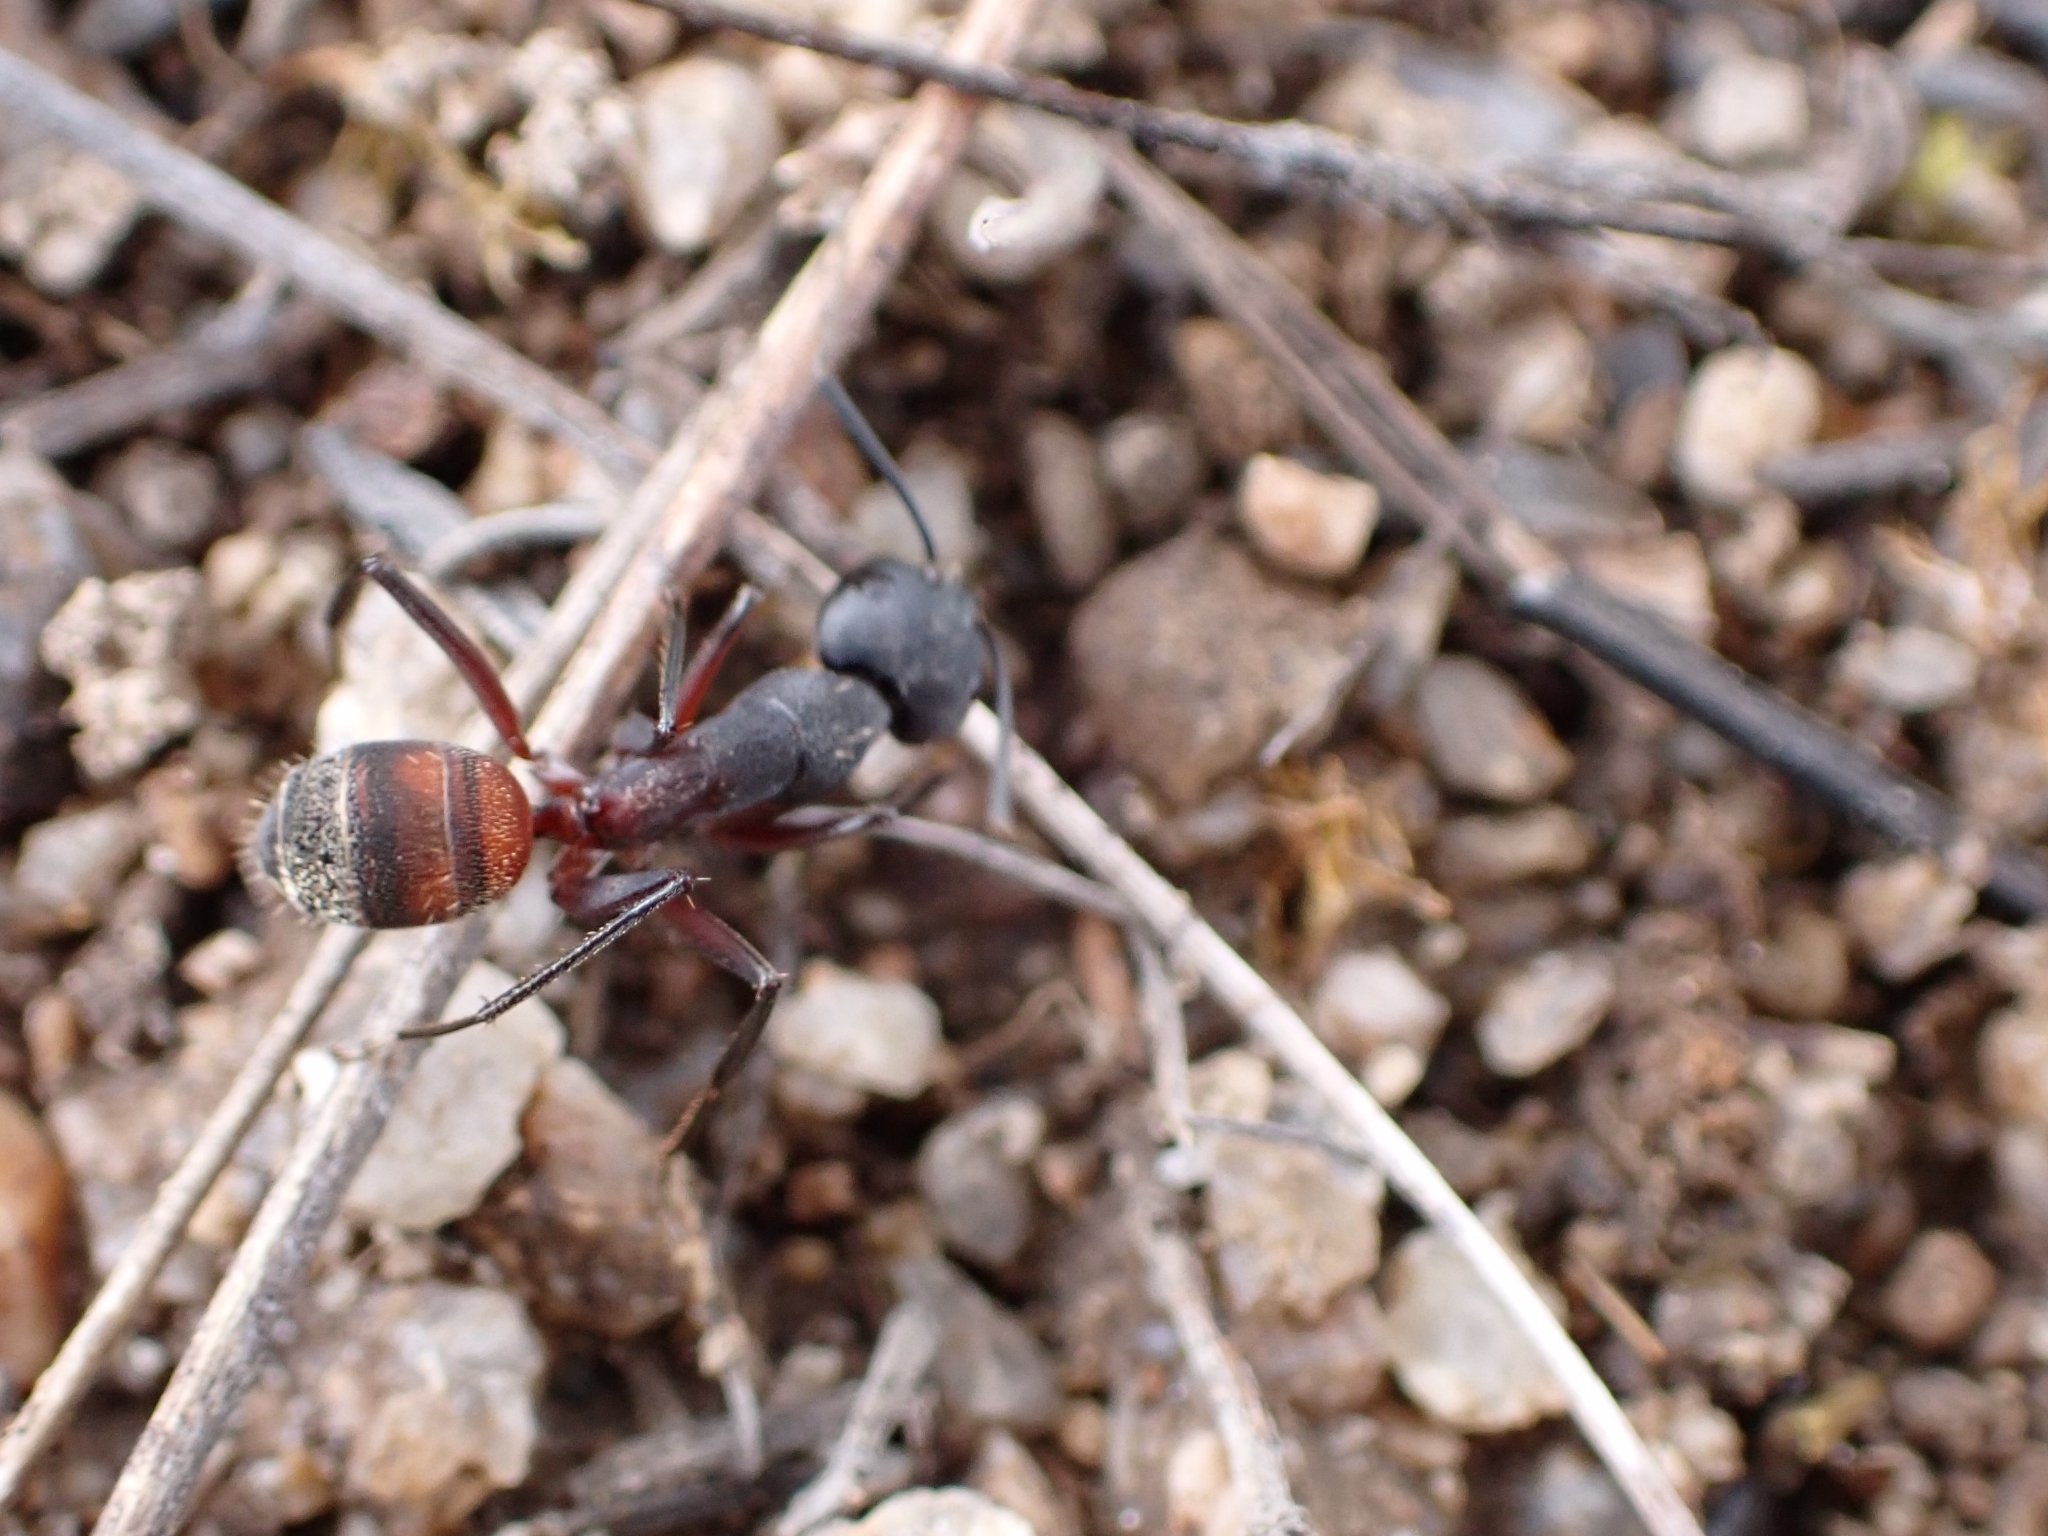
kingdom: Animalia
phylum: Arthropoda
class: Insecta
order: Hymenoptera
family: Formicidae
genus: Camponotus
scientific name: Camponotus cruentatus
